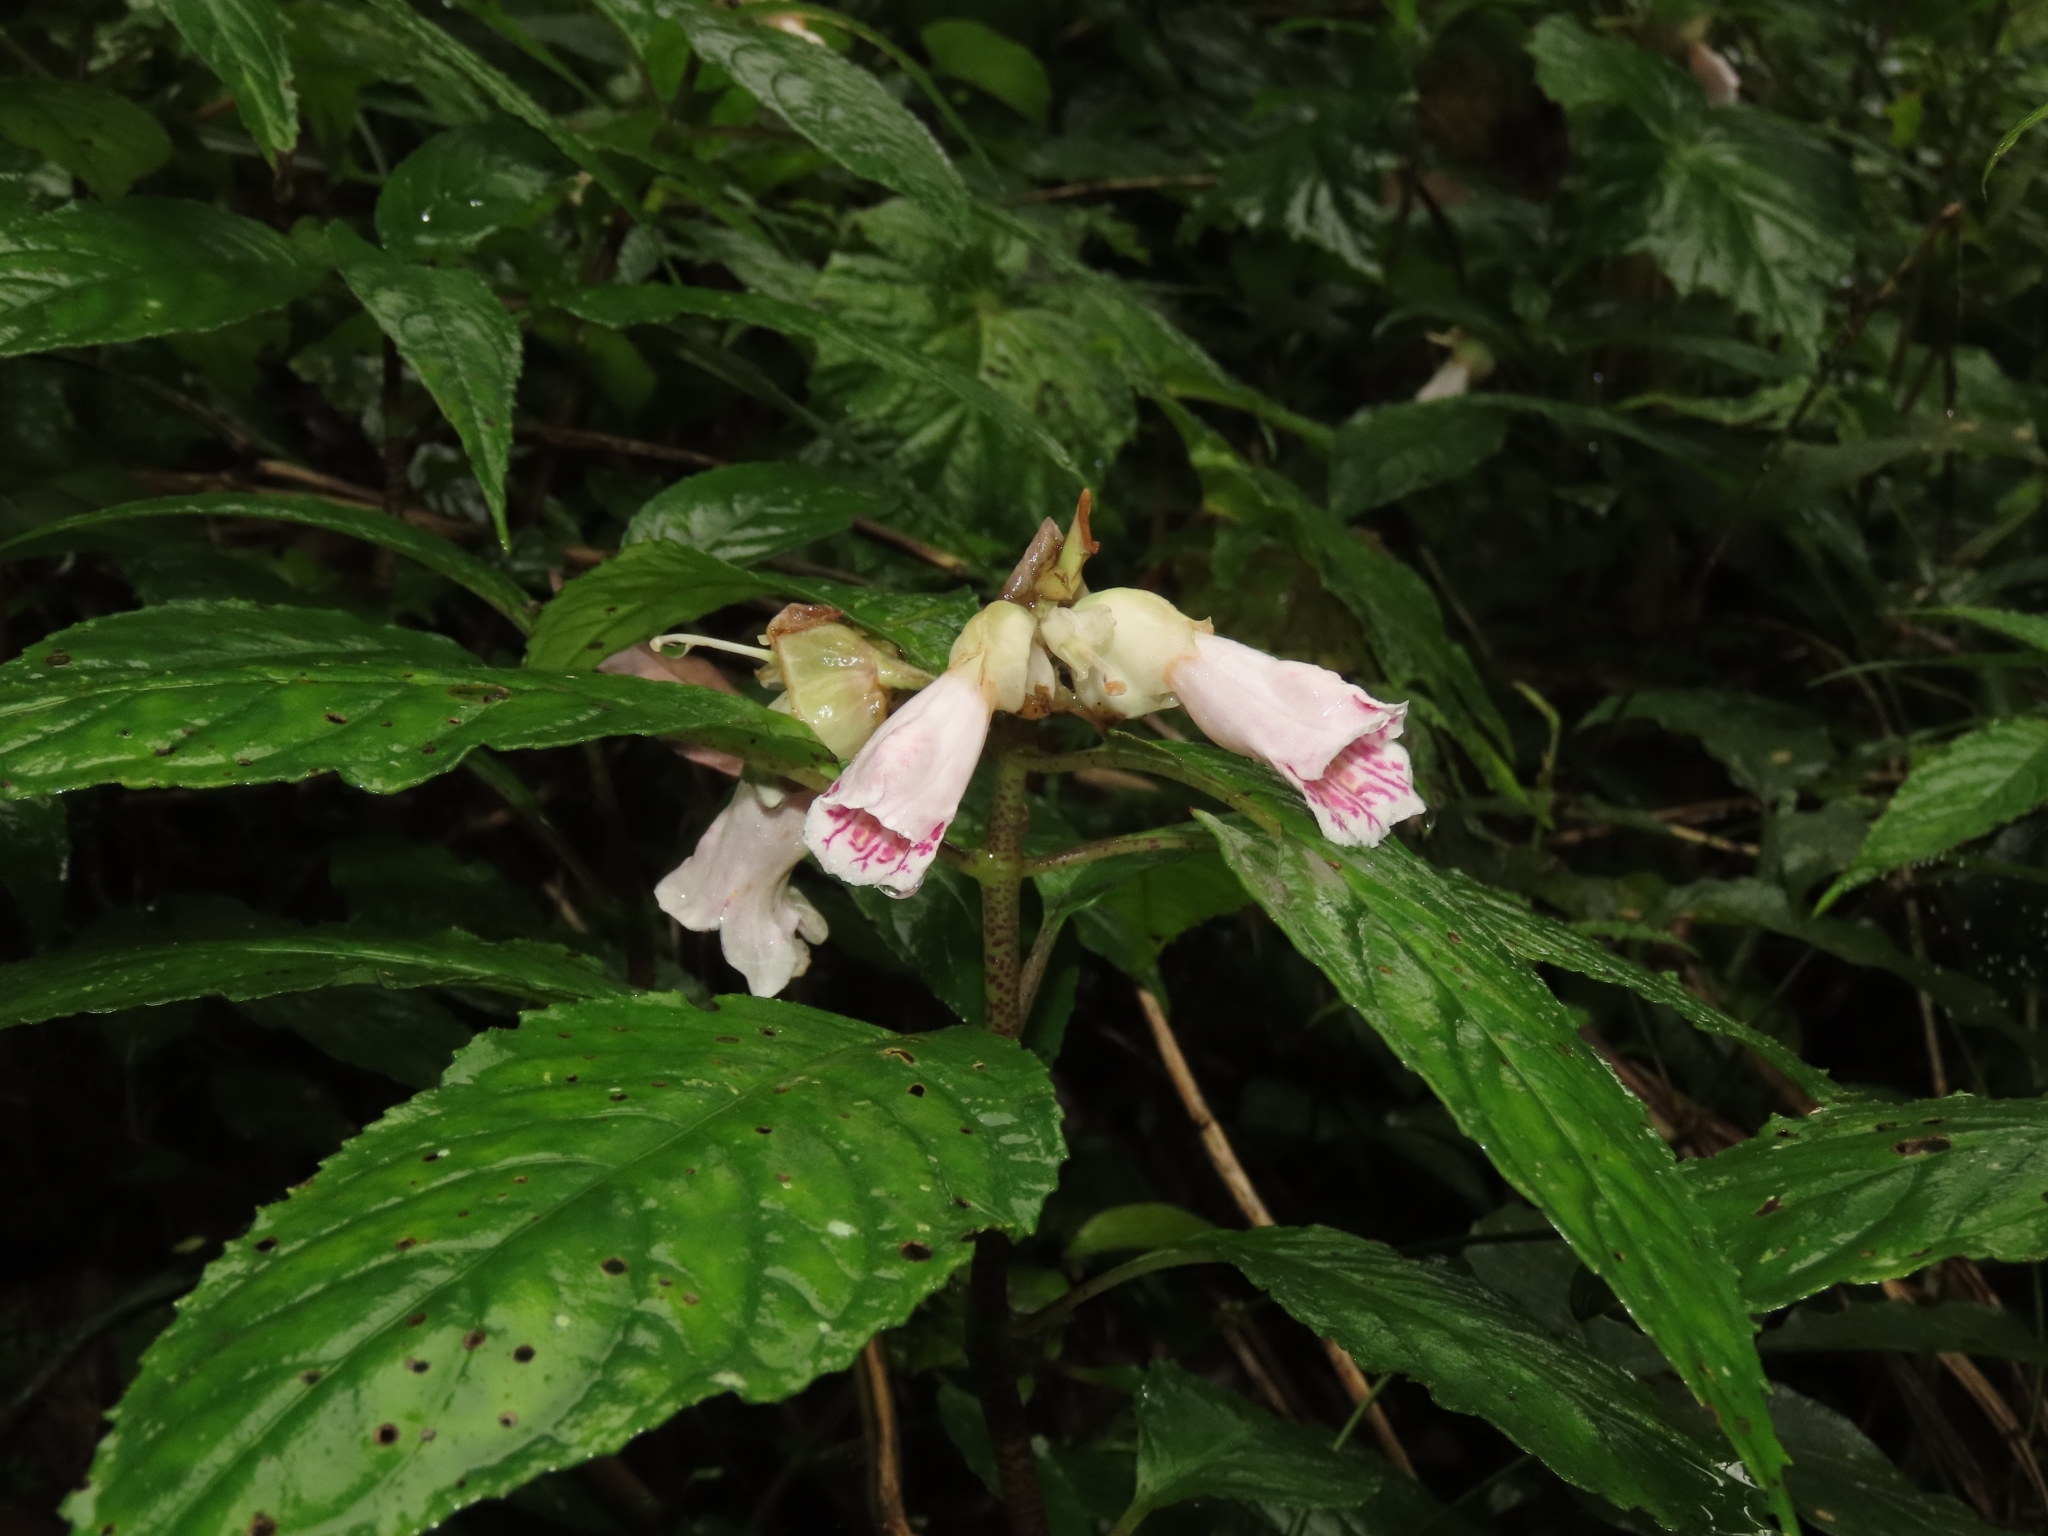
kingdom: Plantae
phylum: Tracheophyta
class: Magnoliopsida
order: Lamiales
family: Gesneriaceae
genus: Hemiboea
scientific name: Hemiboea bicornuta
